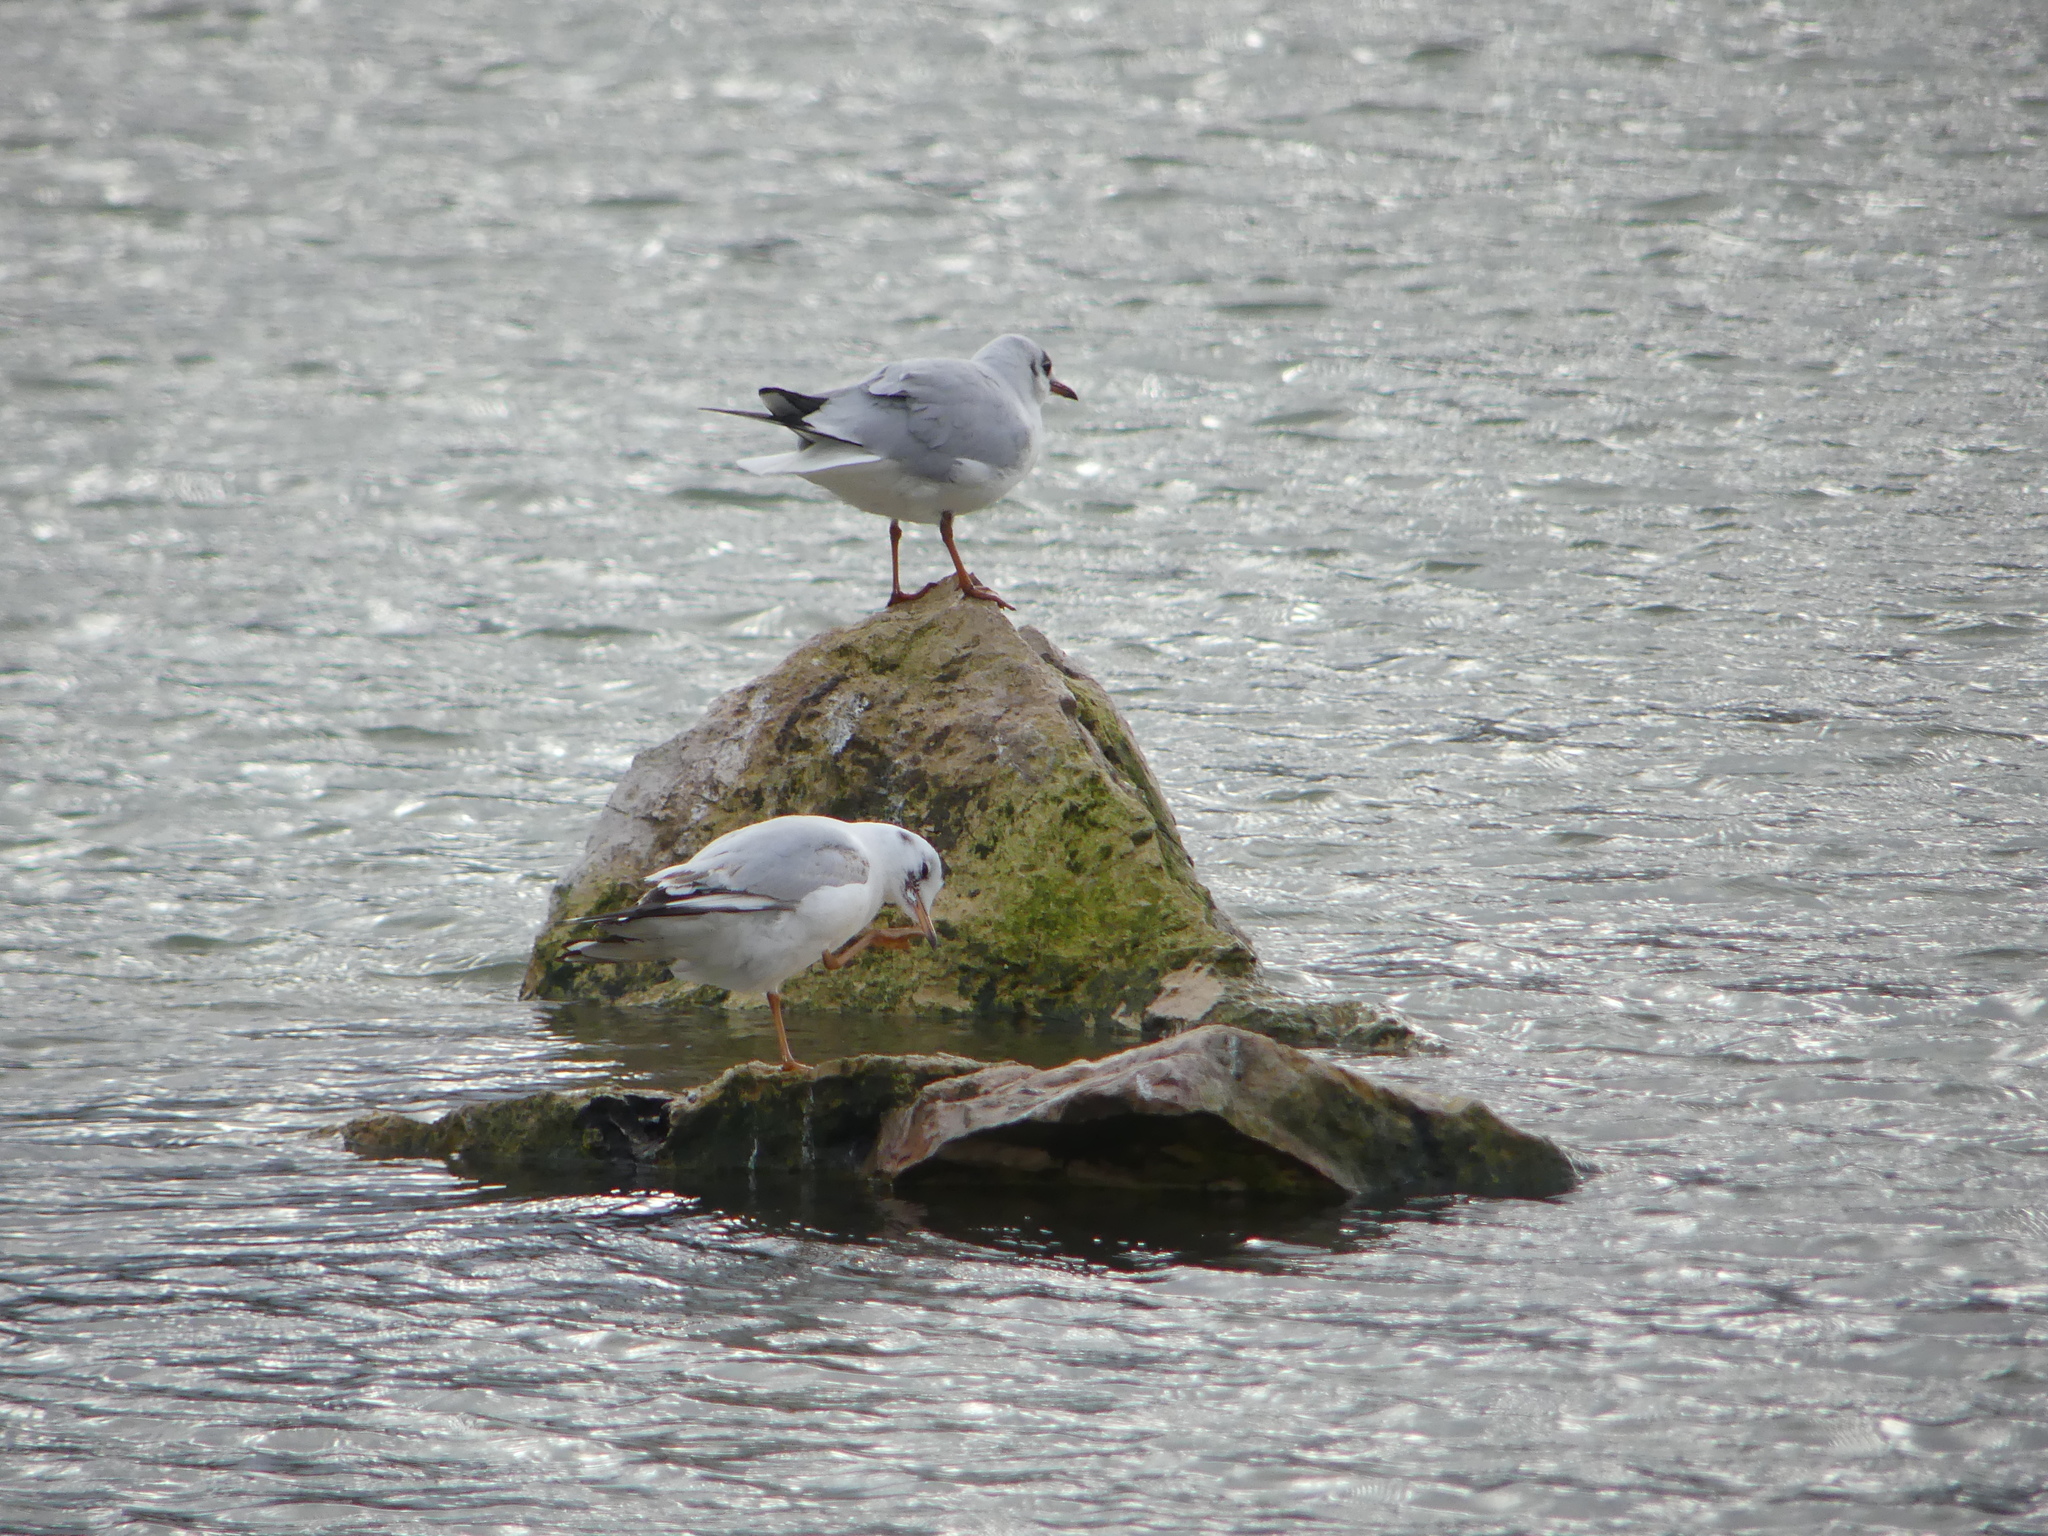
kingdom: Animalia
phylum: Chordata
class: Aves
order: Charadriiformes
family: Laridae
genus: Chroicocephalus
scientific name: Chroicocephalus ridibundus
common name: Black-headed gull
